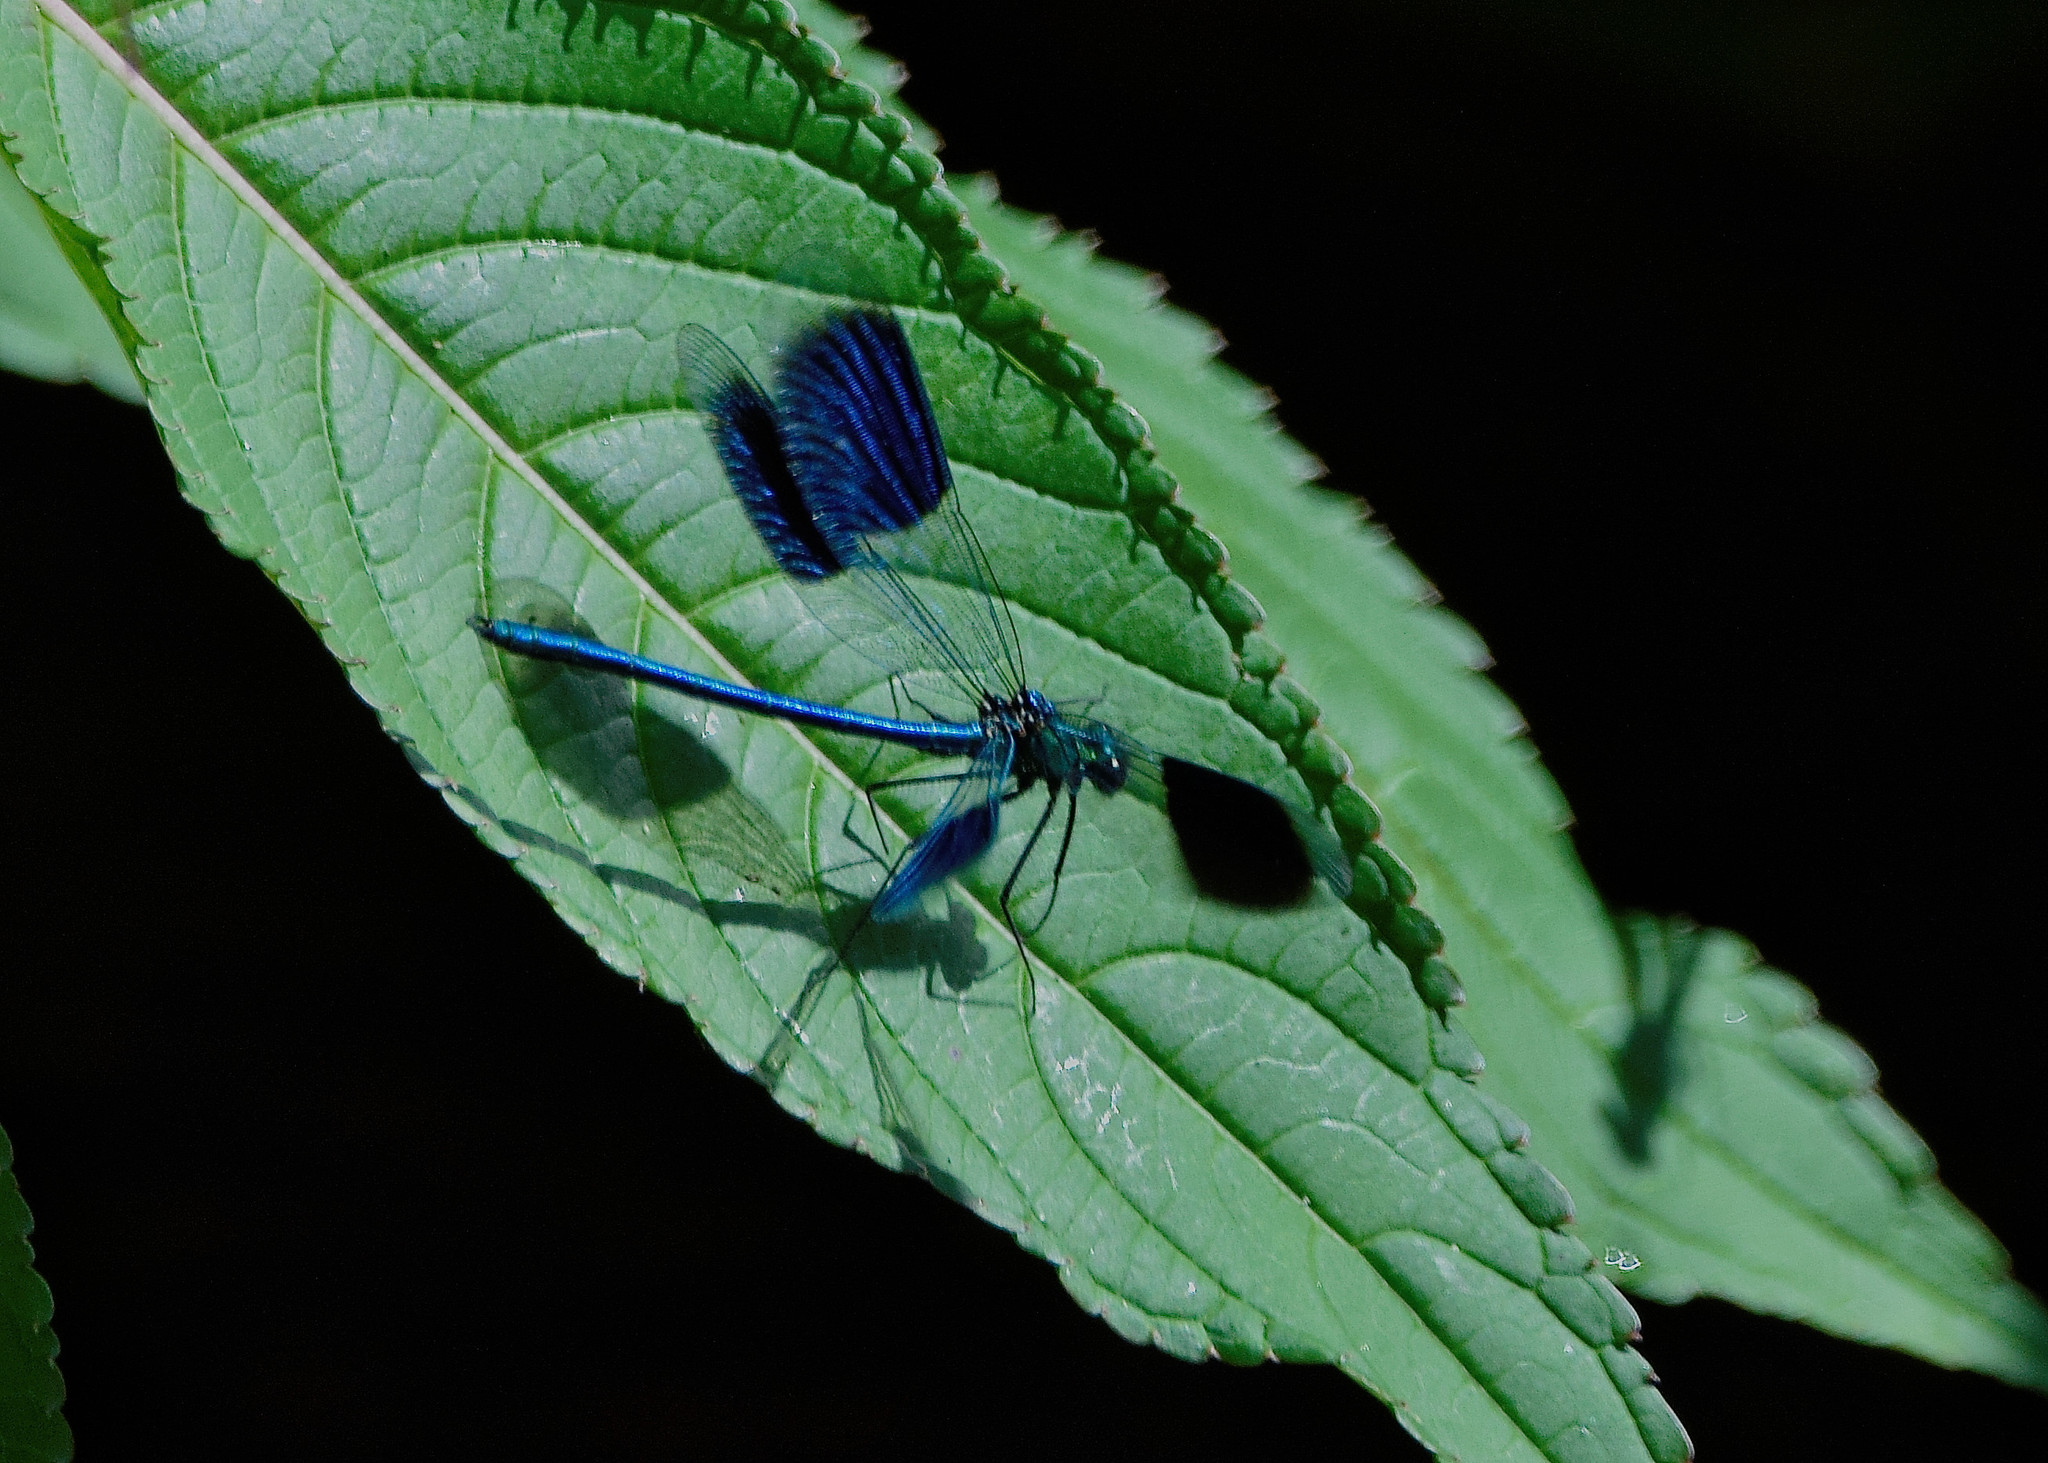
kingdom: Animalia
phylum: Arthropoda
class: Insecta
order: Odonata
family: Calopterygidae
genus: Calopteryx
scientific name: Calopteryx splendens
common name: Banded demoiselle
